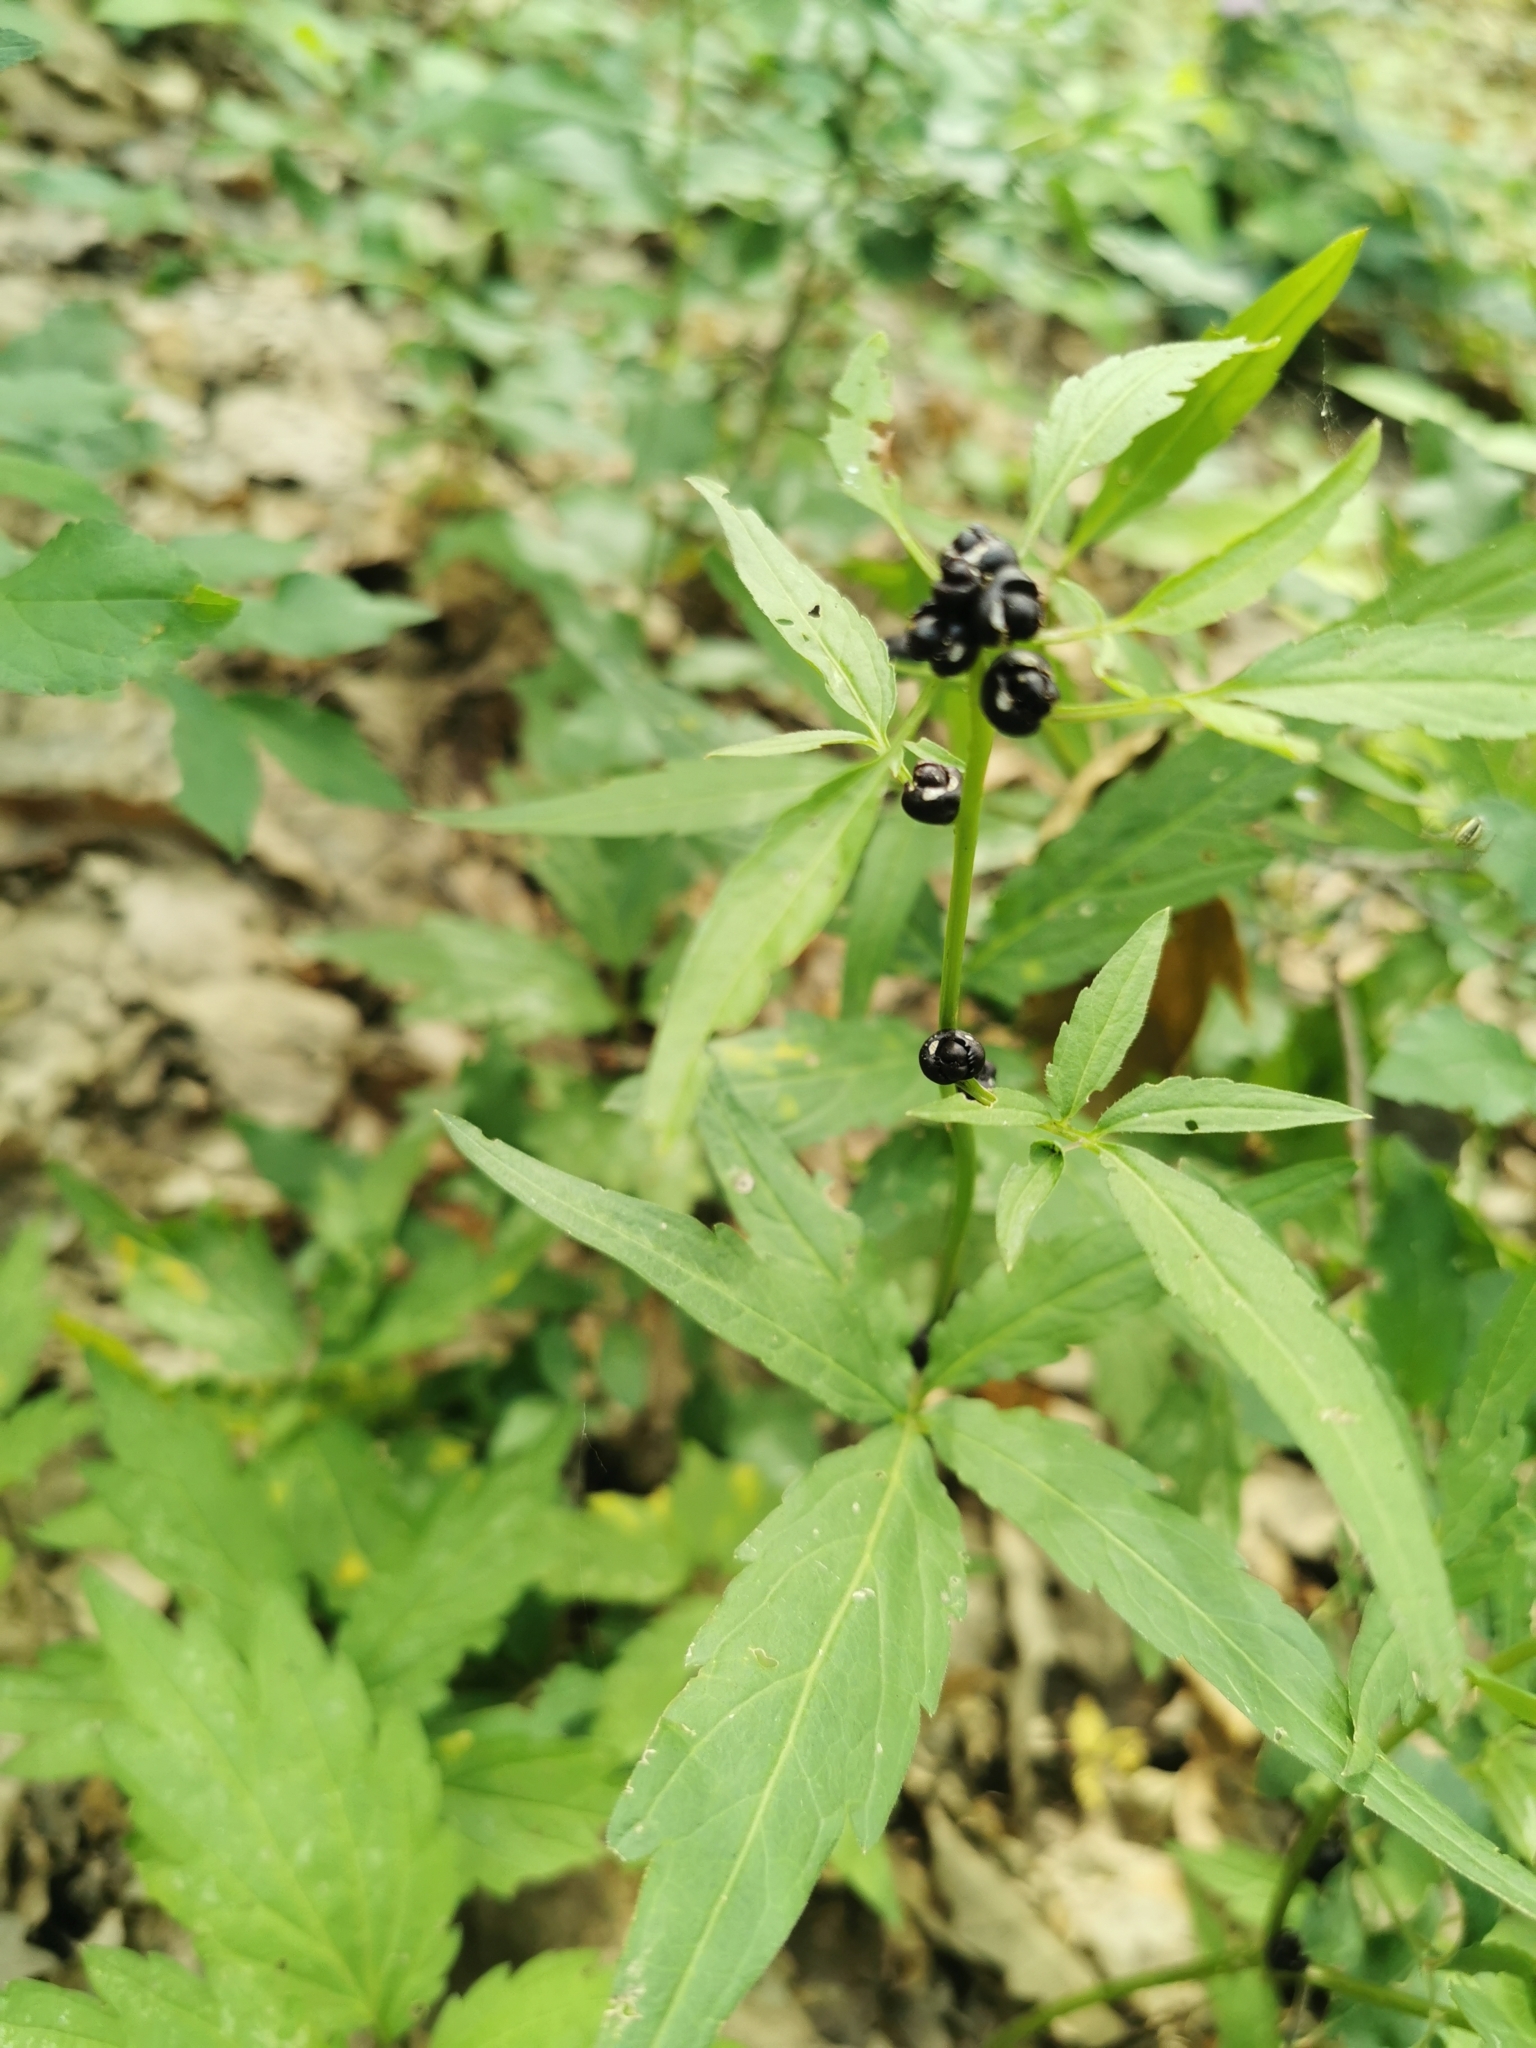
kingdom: Plantae
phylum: Tracheophyta
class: Magnoliopsida
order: Brassicales
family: Brassicaceae
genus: Cardamine
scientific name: Cardamine bulbifera
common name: Coralroot bittercress
